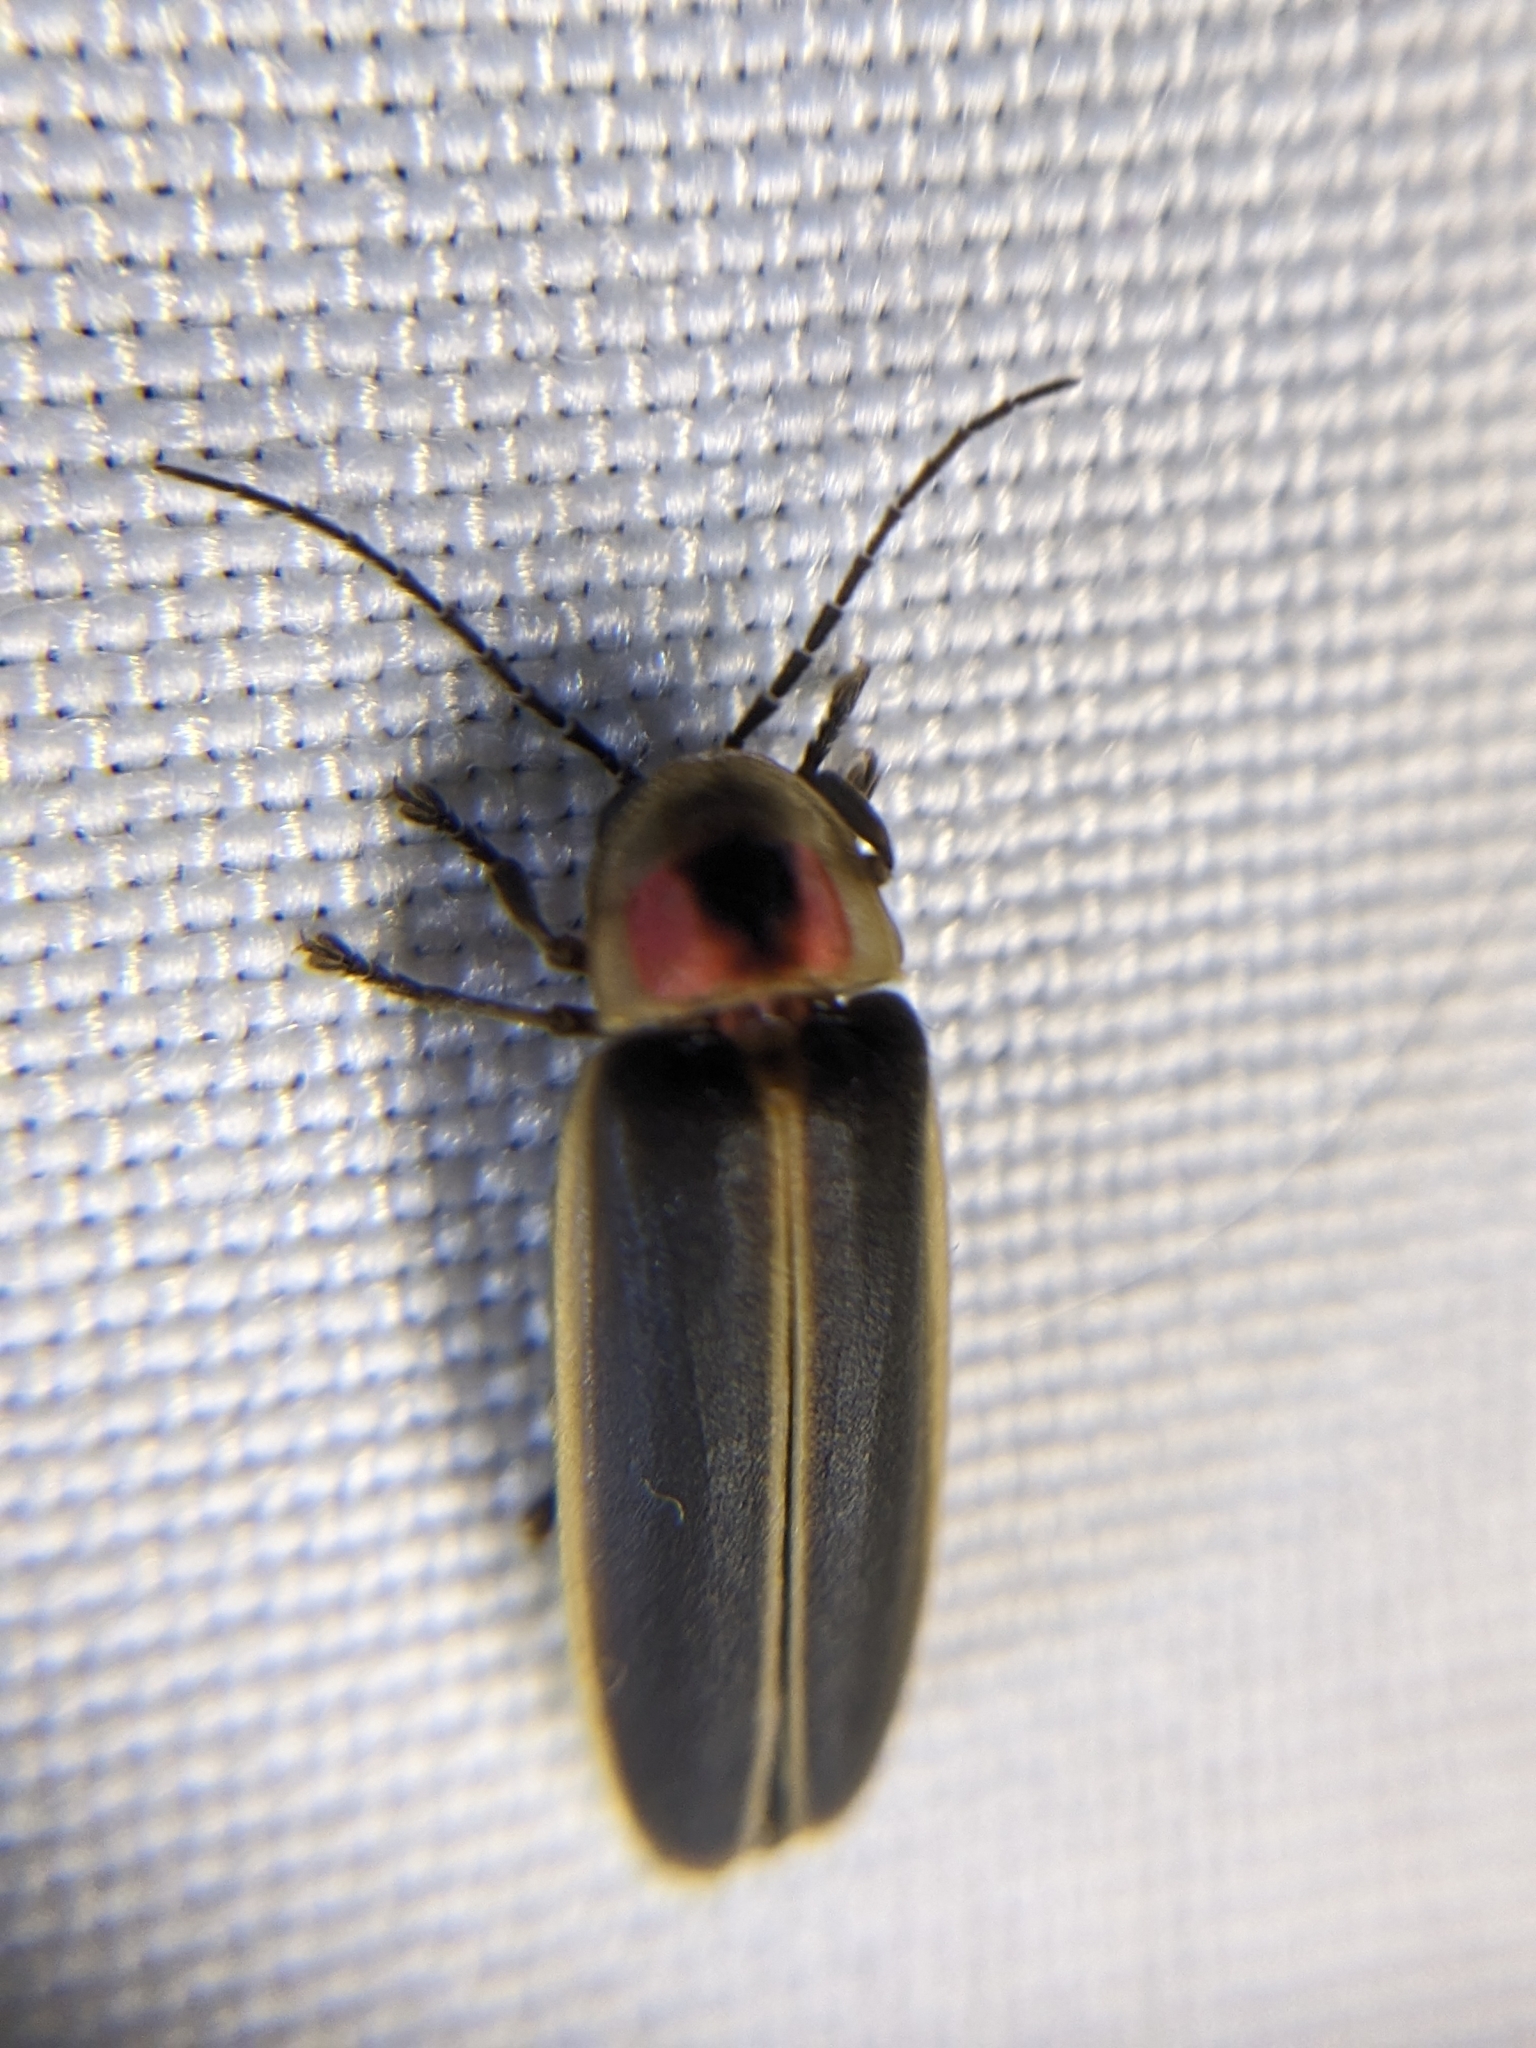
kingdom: Animalia
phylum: Arthropoda
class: Insecta
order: Coleoptera
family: Lampyridae
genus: Photinus
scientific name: Photinus pyralis
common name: Big dipper firefly
